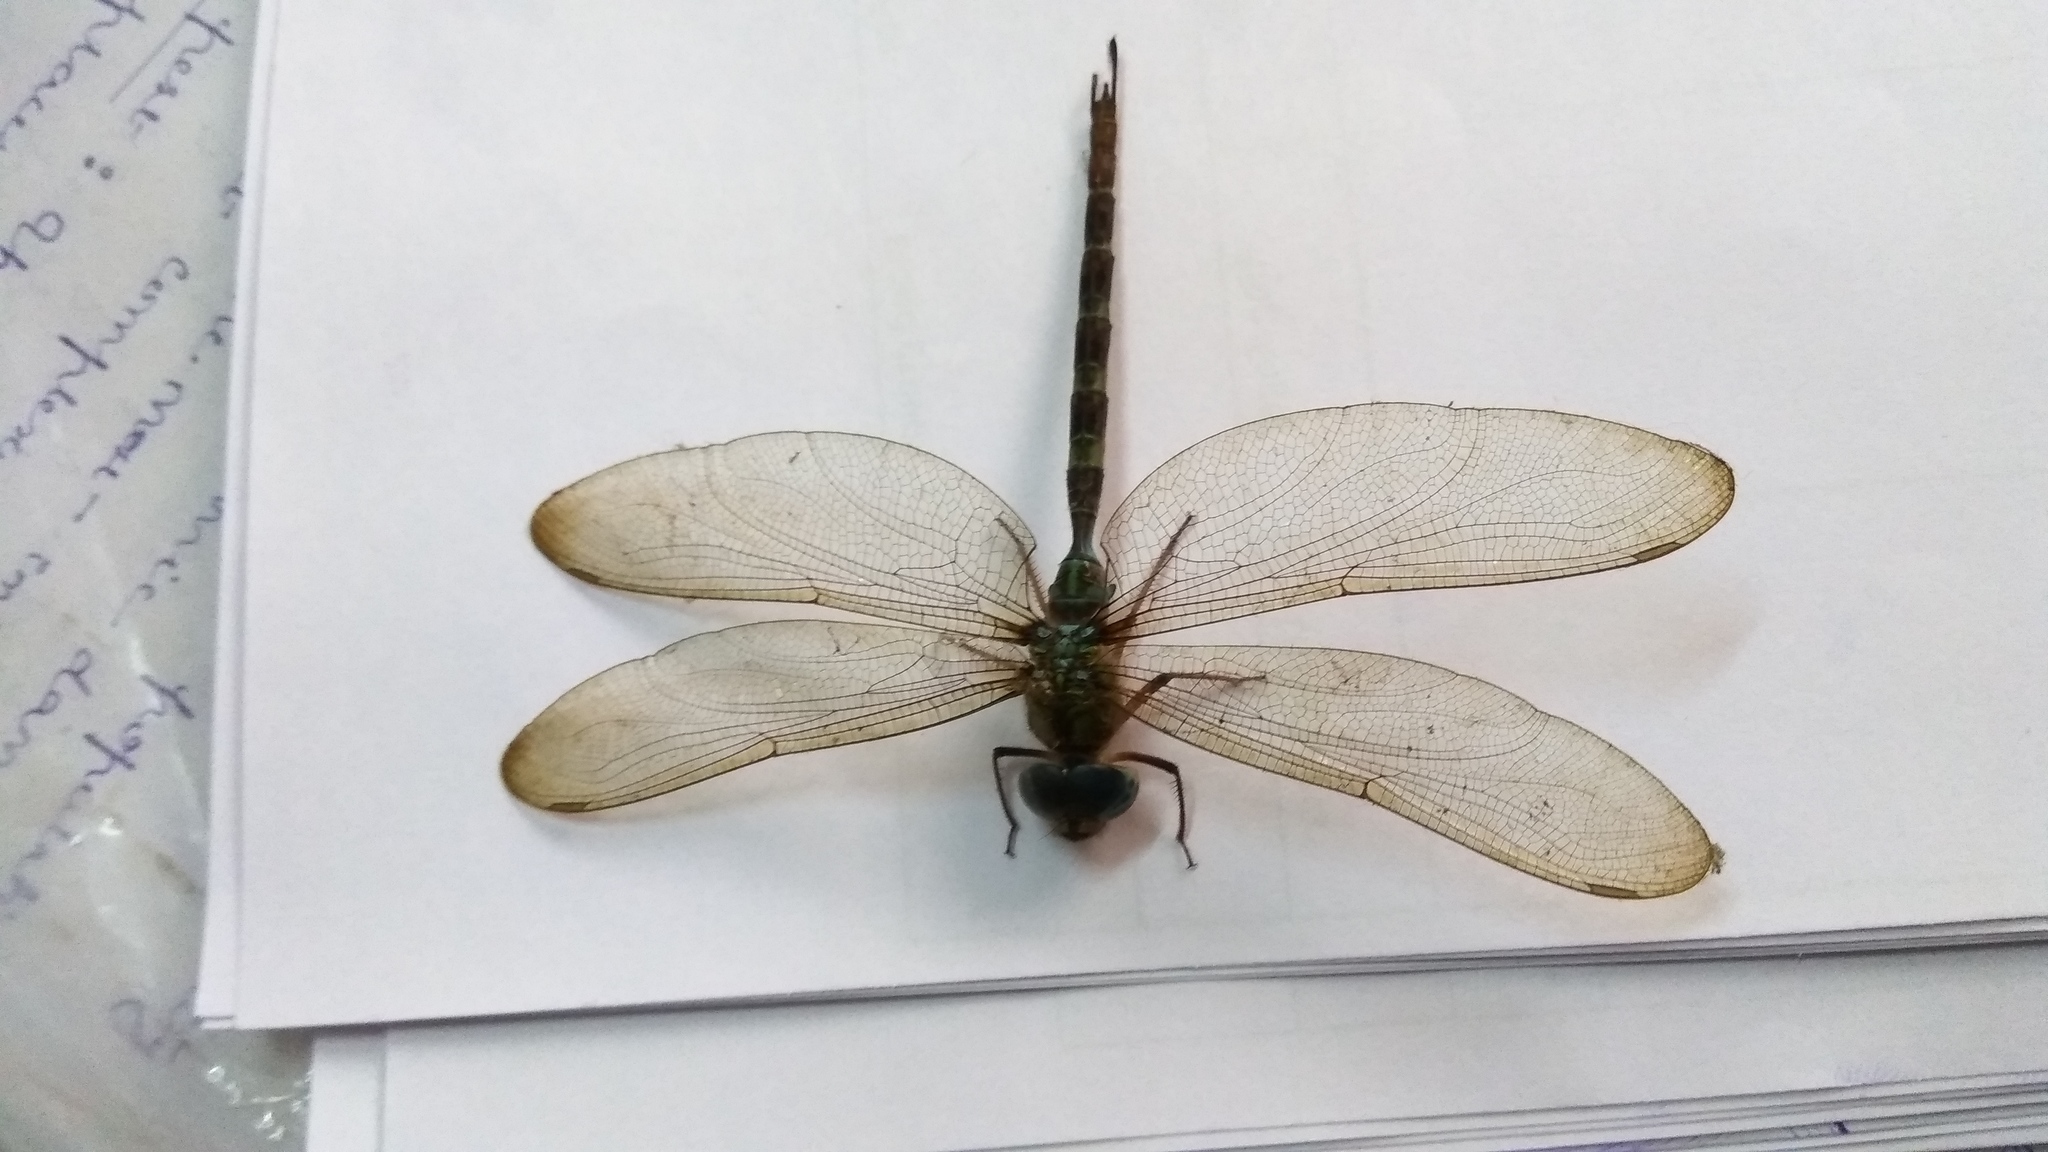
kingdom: Animalia
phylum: Arthropoda
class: Insecta
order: Odonata
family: Aeshnidae
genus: Gynacantha
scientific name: Gynacantha dravida
